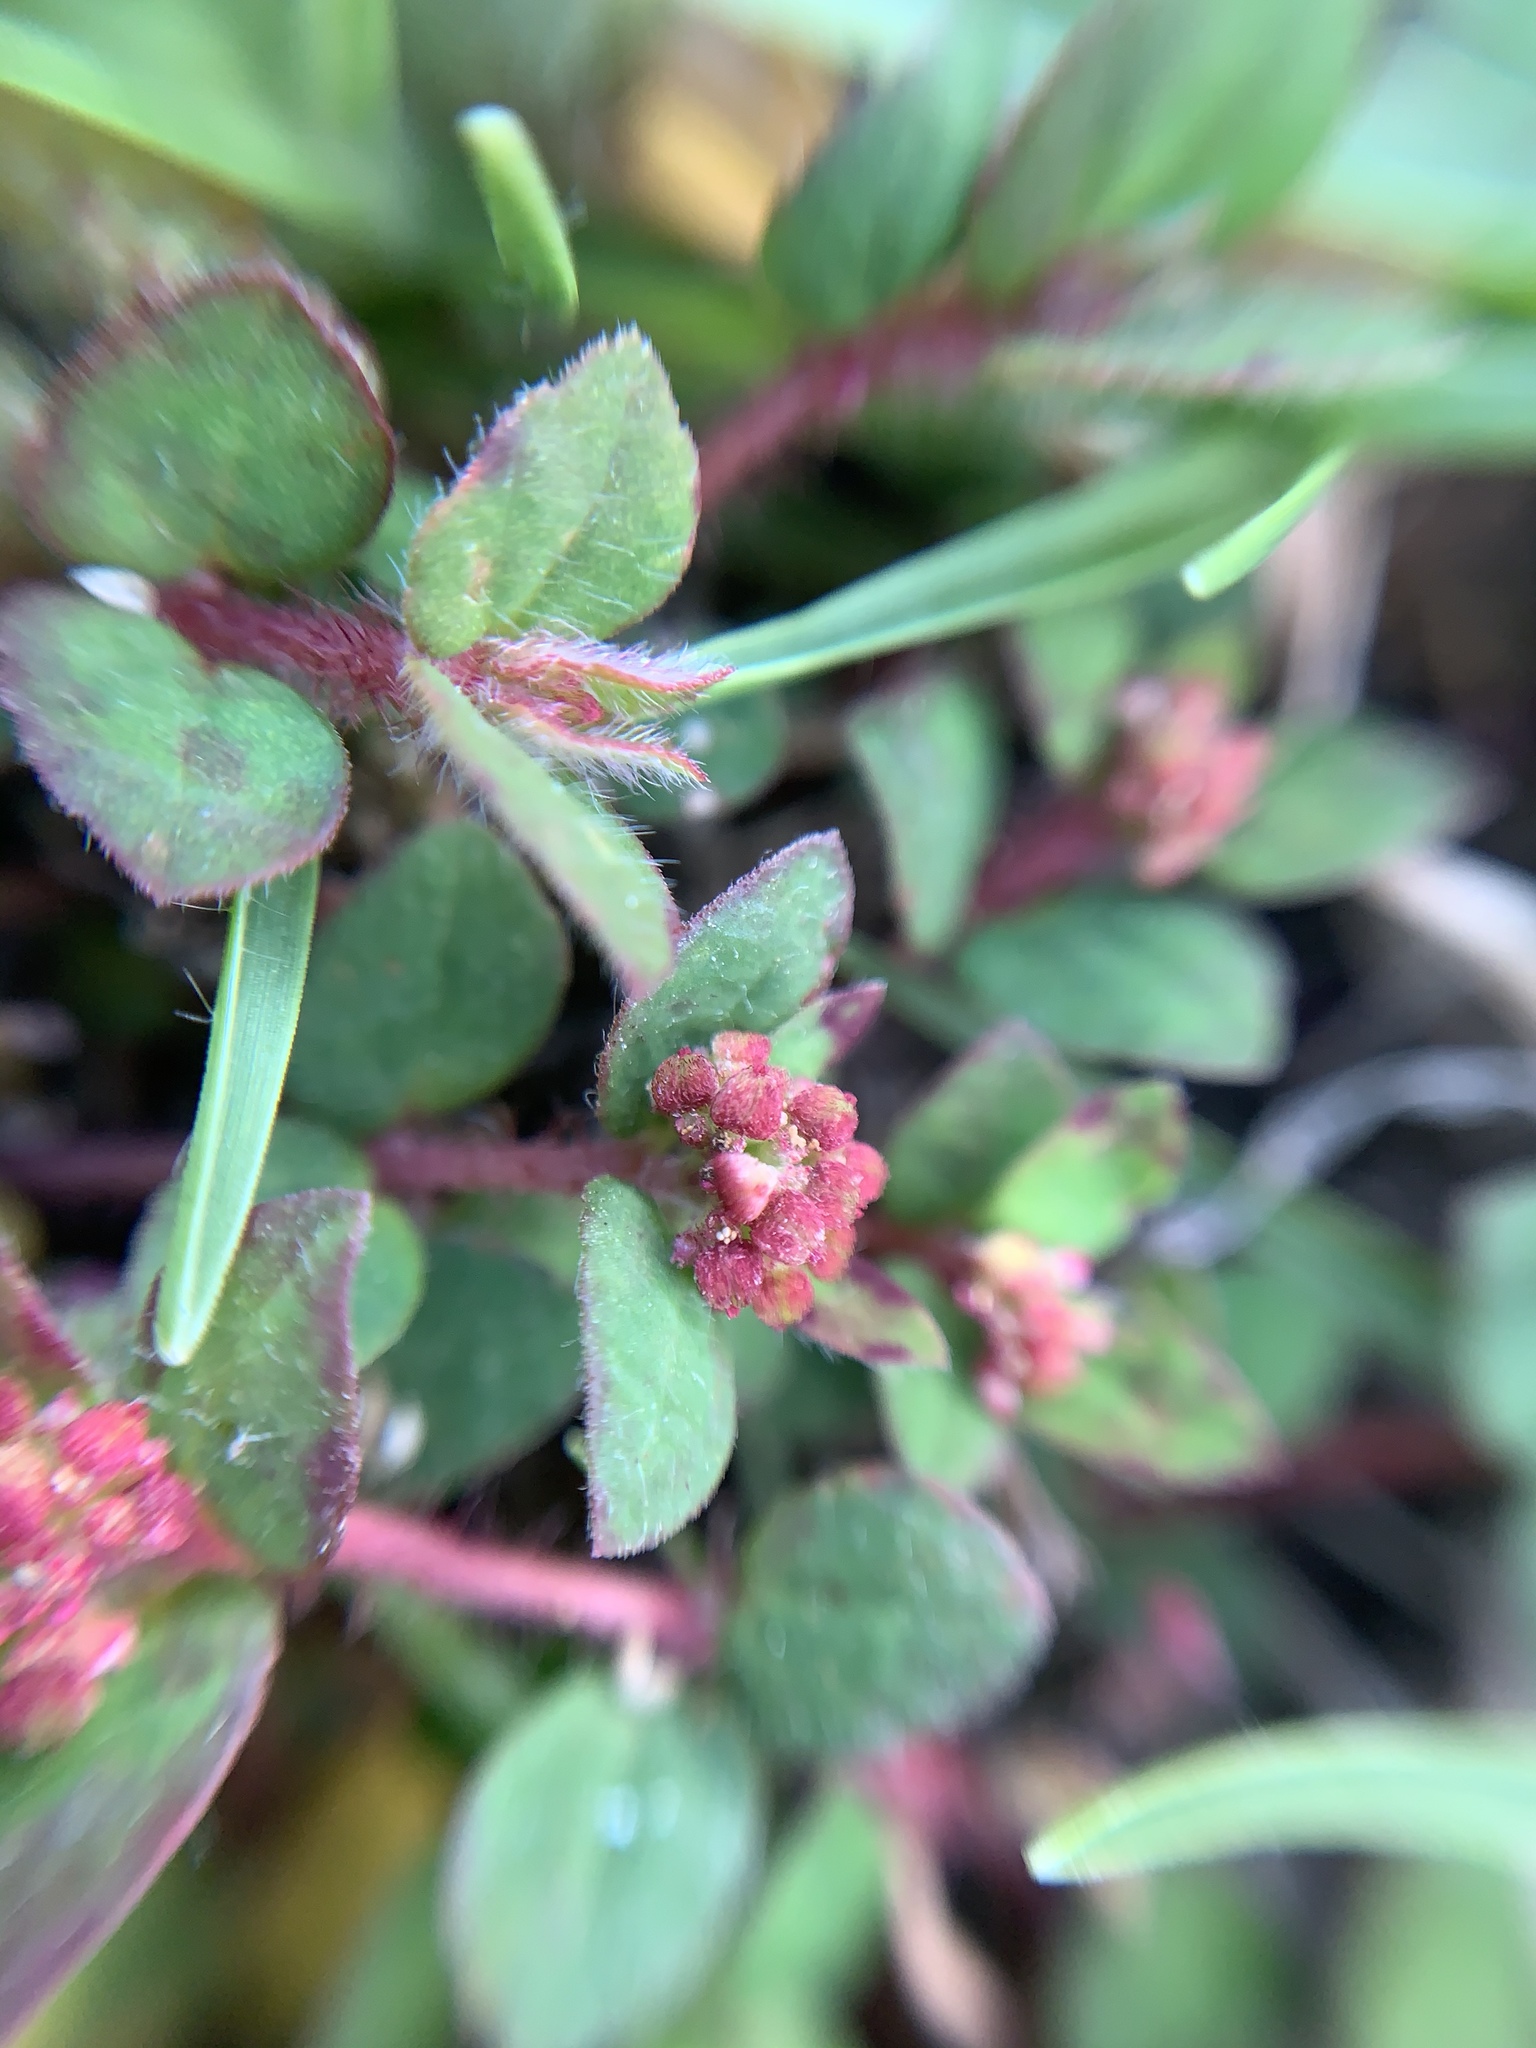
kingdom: Plantae
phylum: Tracheophyta
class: Magnoliopsida
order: Malpighiales
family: Euphorbiaceae
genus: Euphorbia
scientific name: Euphorbia ophthalmica
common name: Florida hammock sandmat
